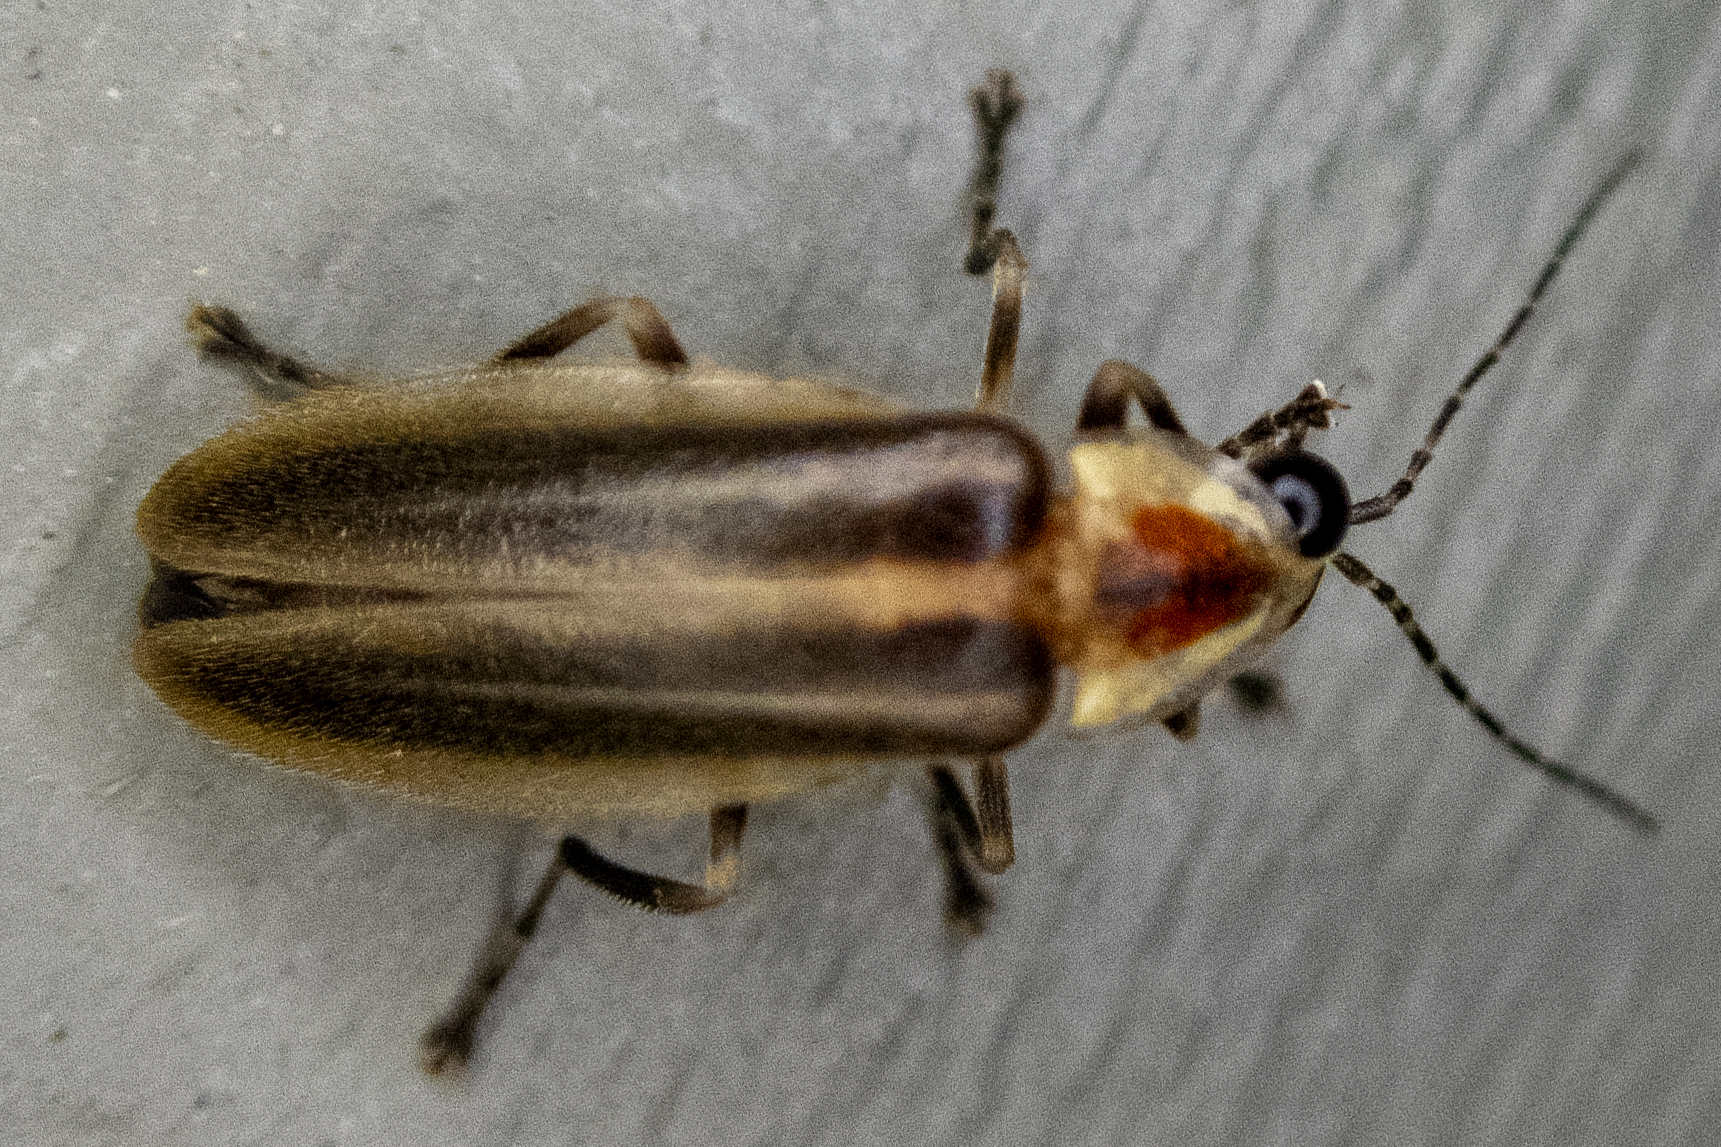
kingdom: Animalia
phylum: Arthropoda
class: Insecta
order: Coleoptera
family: Lampyridae
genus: Photuris
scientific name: Photuris
